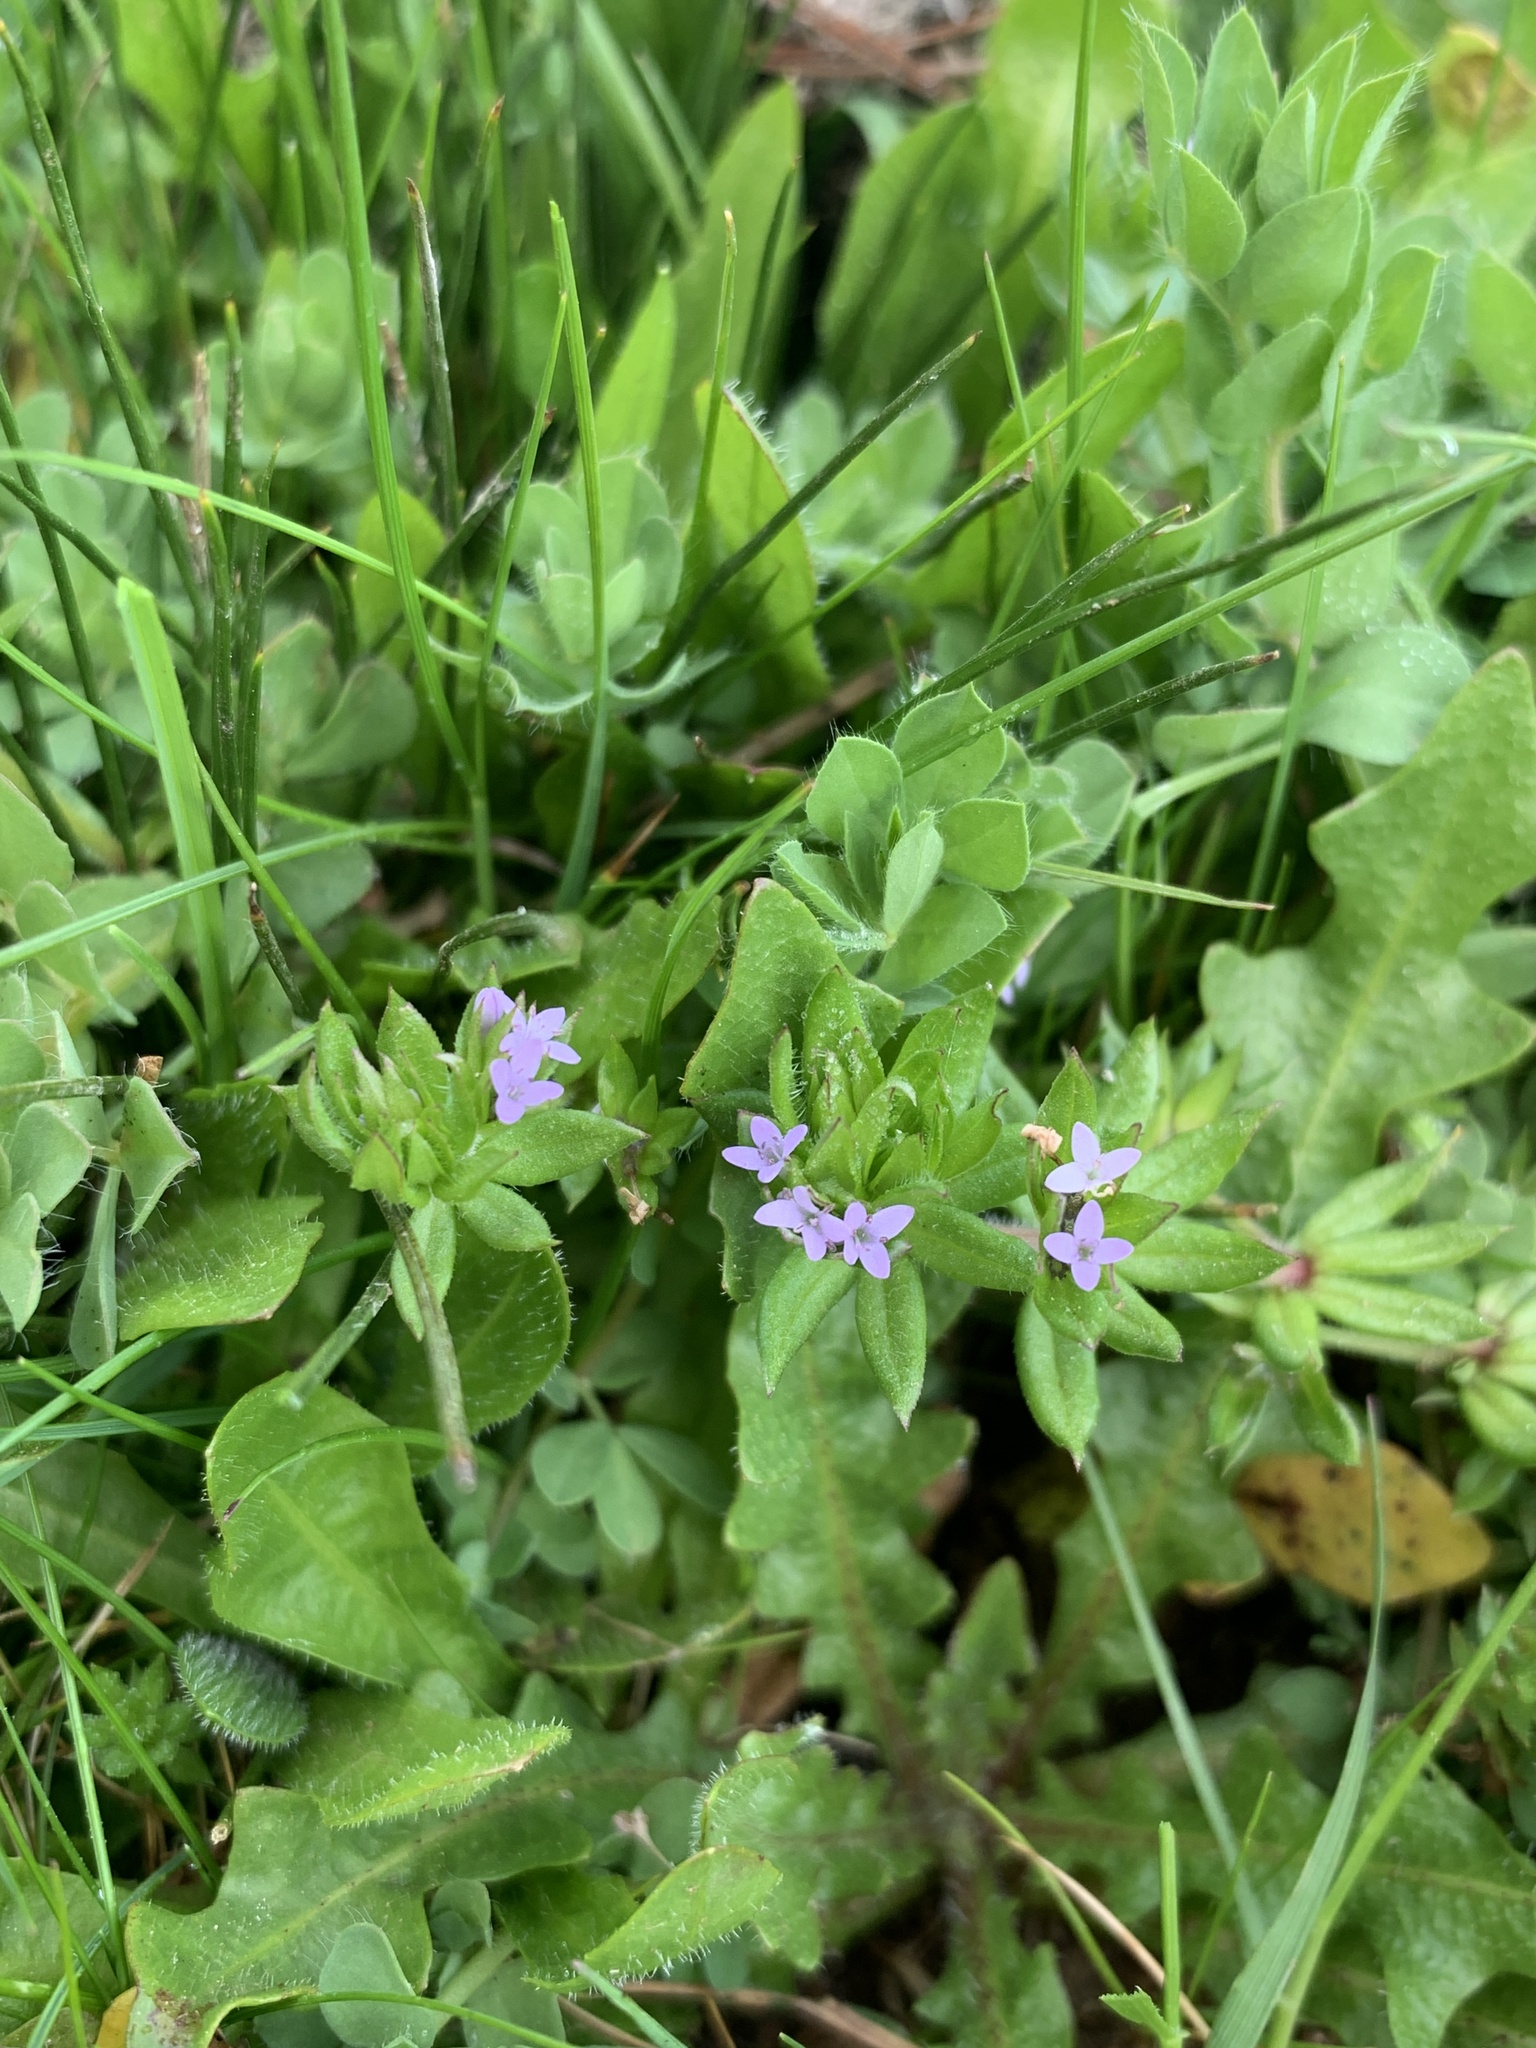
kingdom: Plantae
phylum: Tracheophyta
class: Magnoliopsida
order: Gentianales
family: Rubiaceae
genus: Sherardia
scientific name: Sherardia arvensis
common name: Field madder
